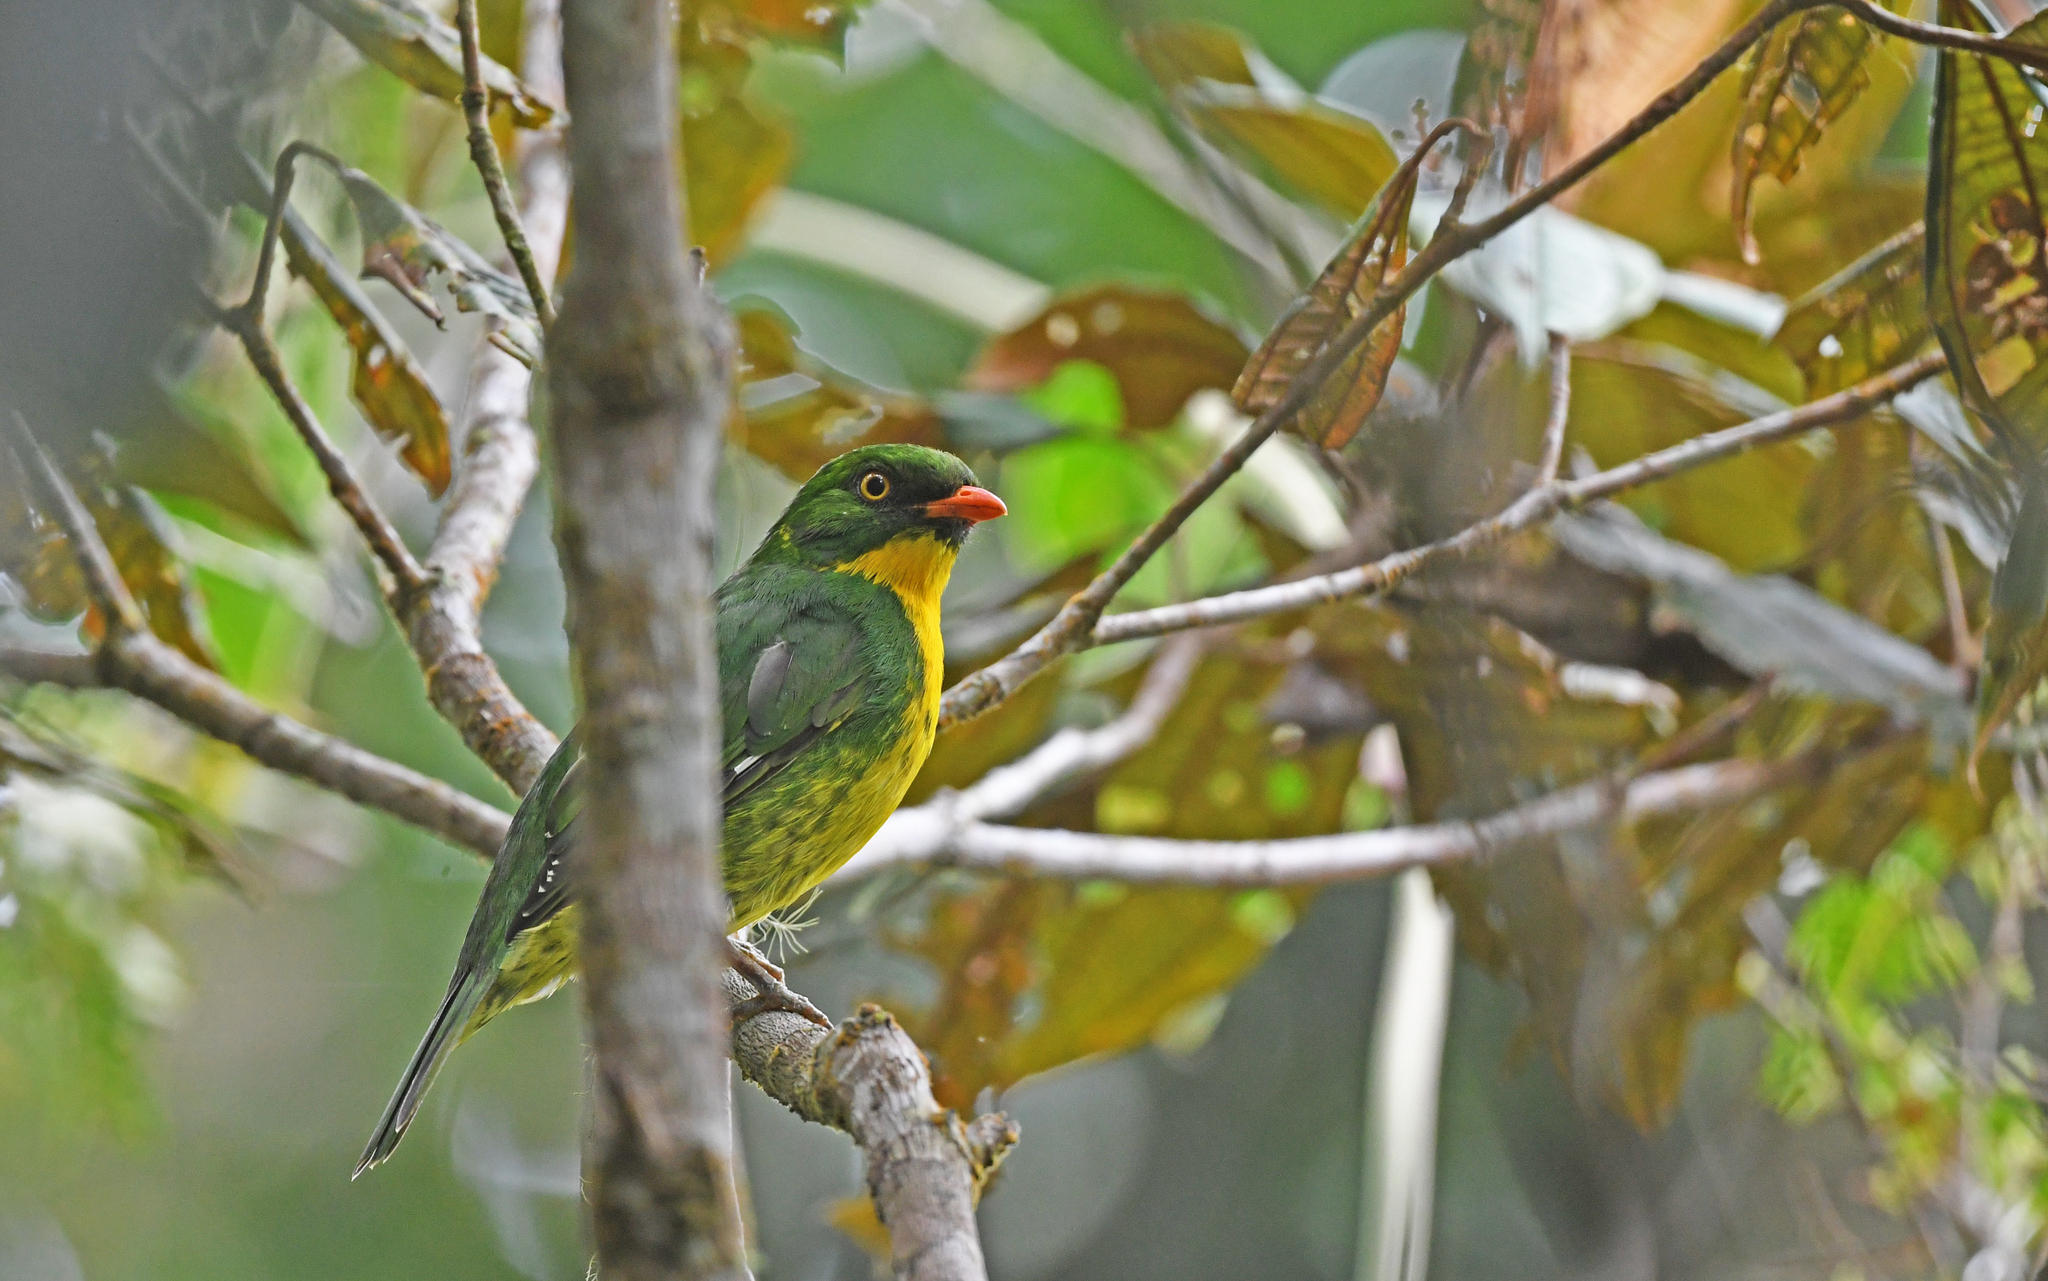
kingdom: Animalia
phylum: Chordata
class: Aves
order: Passeriformes
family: Cotingidae
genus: Pipreola
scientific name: Pipreola aureopectus
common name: Golden-breasted fruiteater
